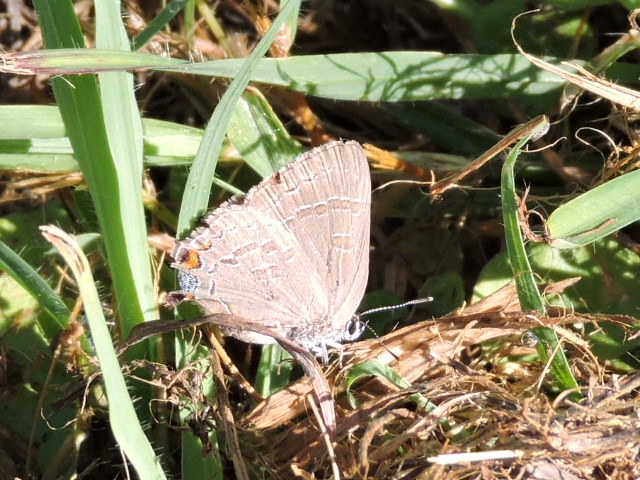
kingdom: Animalia
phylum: Arthropoda
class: Insecta
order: Lepidoptera
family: Lycaenidae
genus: Satyrium
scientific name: Satyrium calanus
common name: Banded hairstreak
